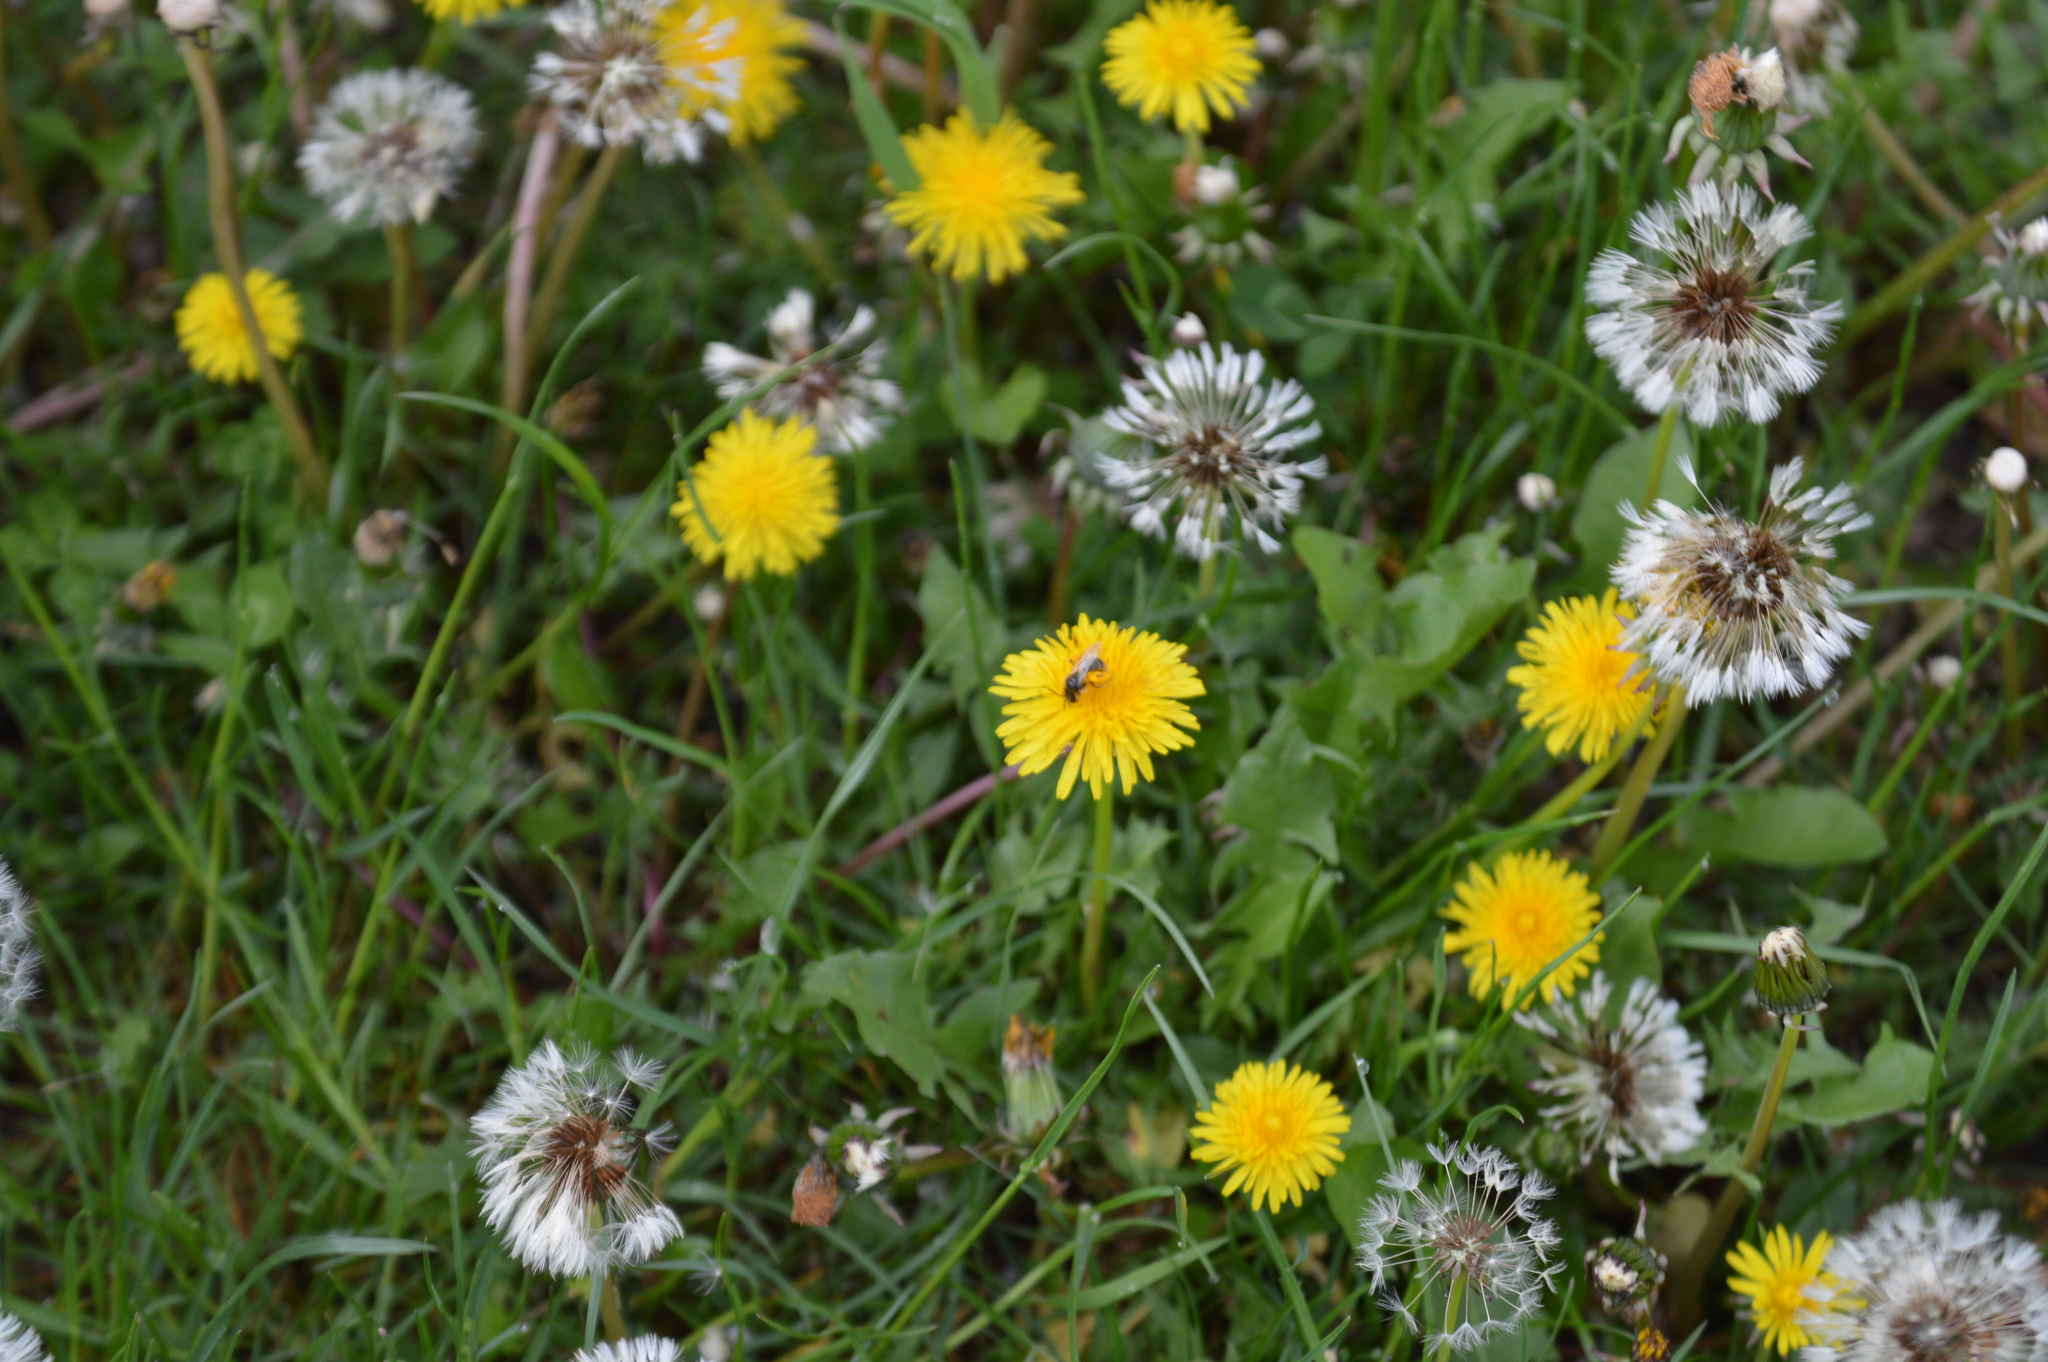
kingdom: Plantae
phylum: Tracheophyta
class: Magnoliopsida
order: Asterales
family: Asteraceae
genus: Taraxacum
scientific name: Taraxacum
